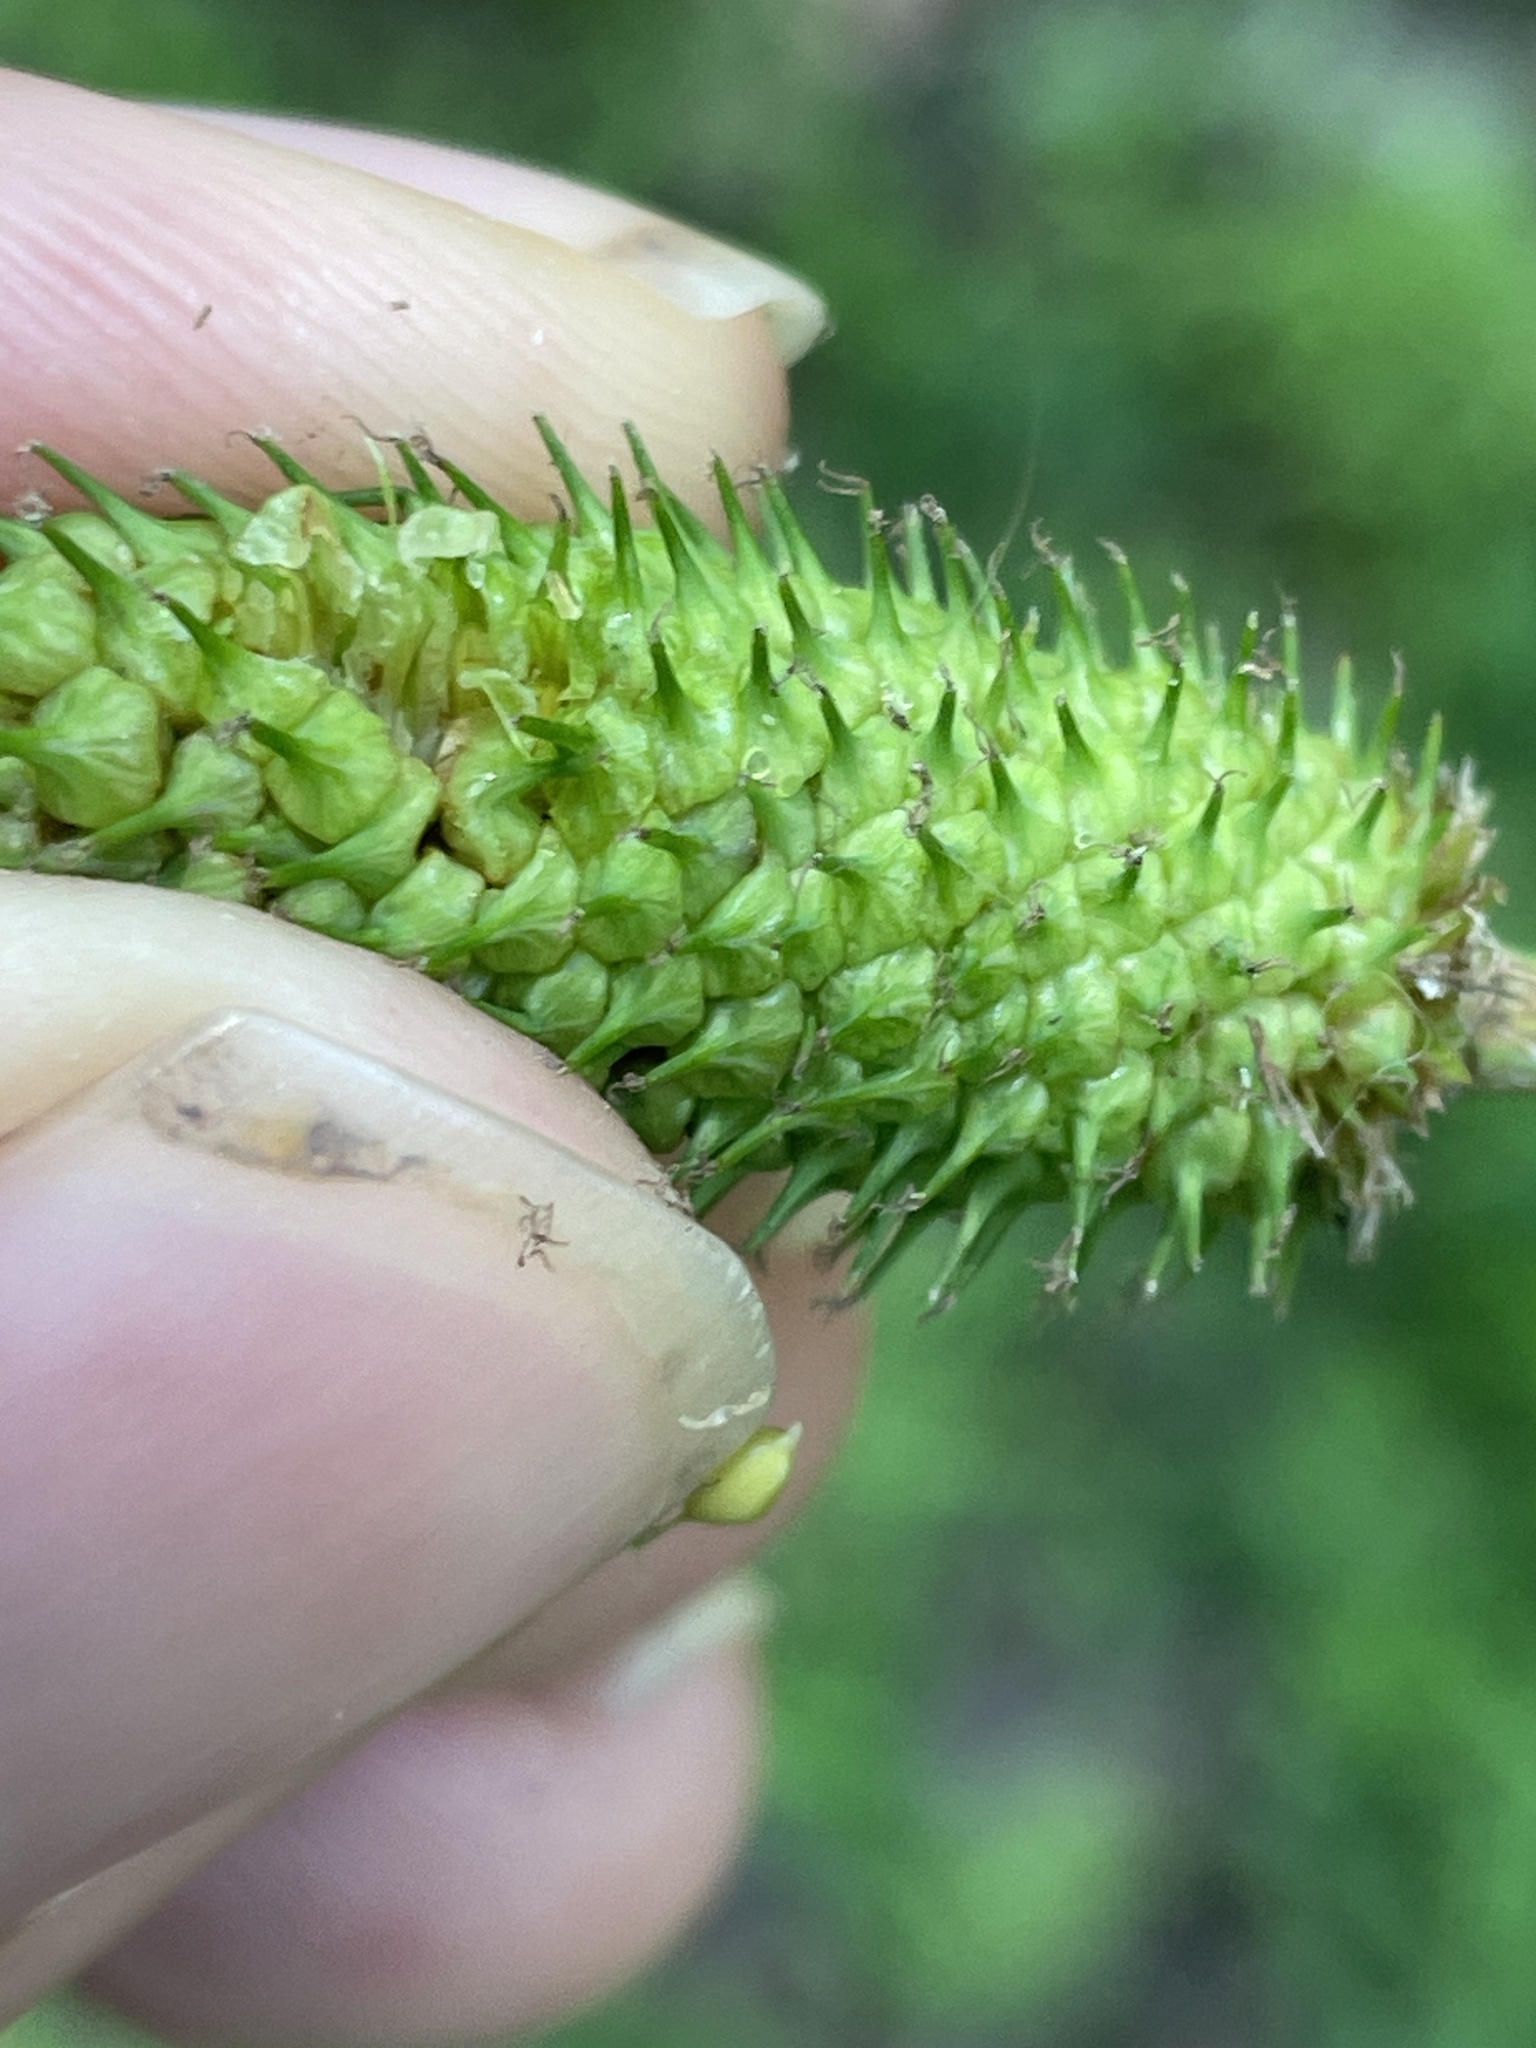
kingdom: Plantae
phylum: Tracheophyta
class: Liliopsida
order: Poales
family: Cyperaceae
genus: Carex
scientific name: Carex typhina
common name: Cattail sedge
